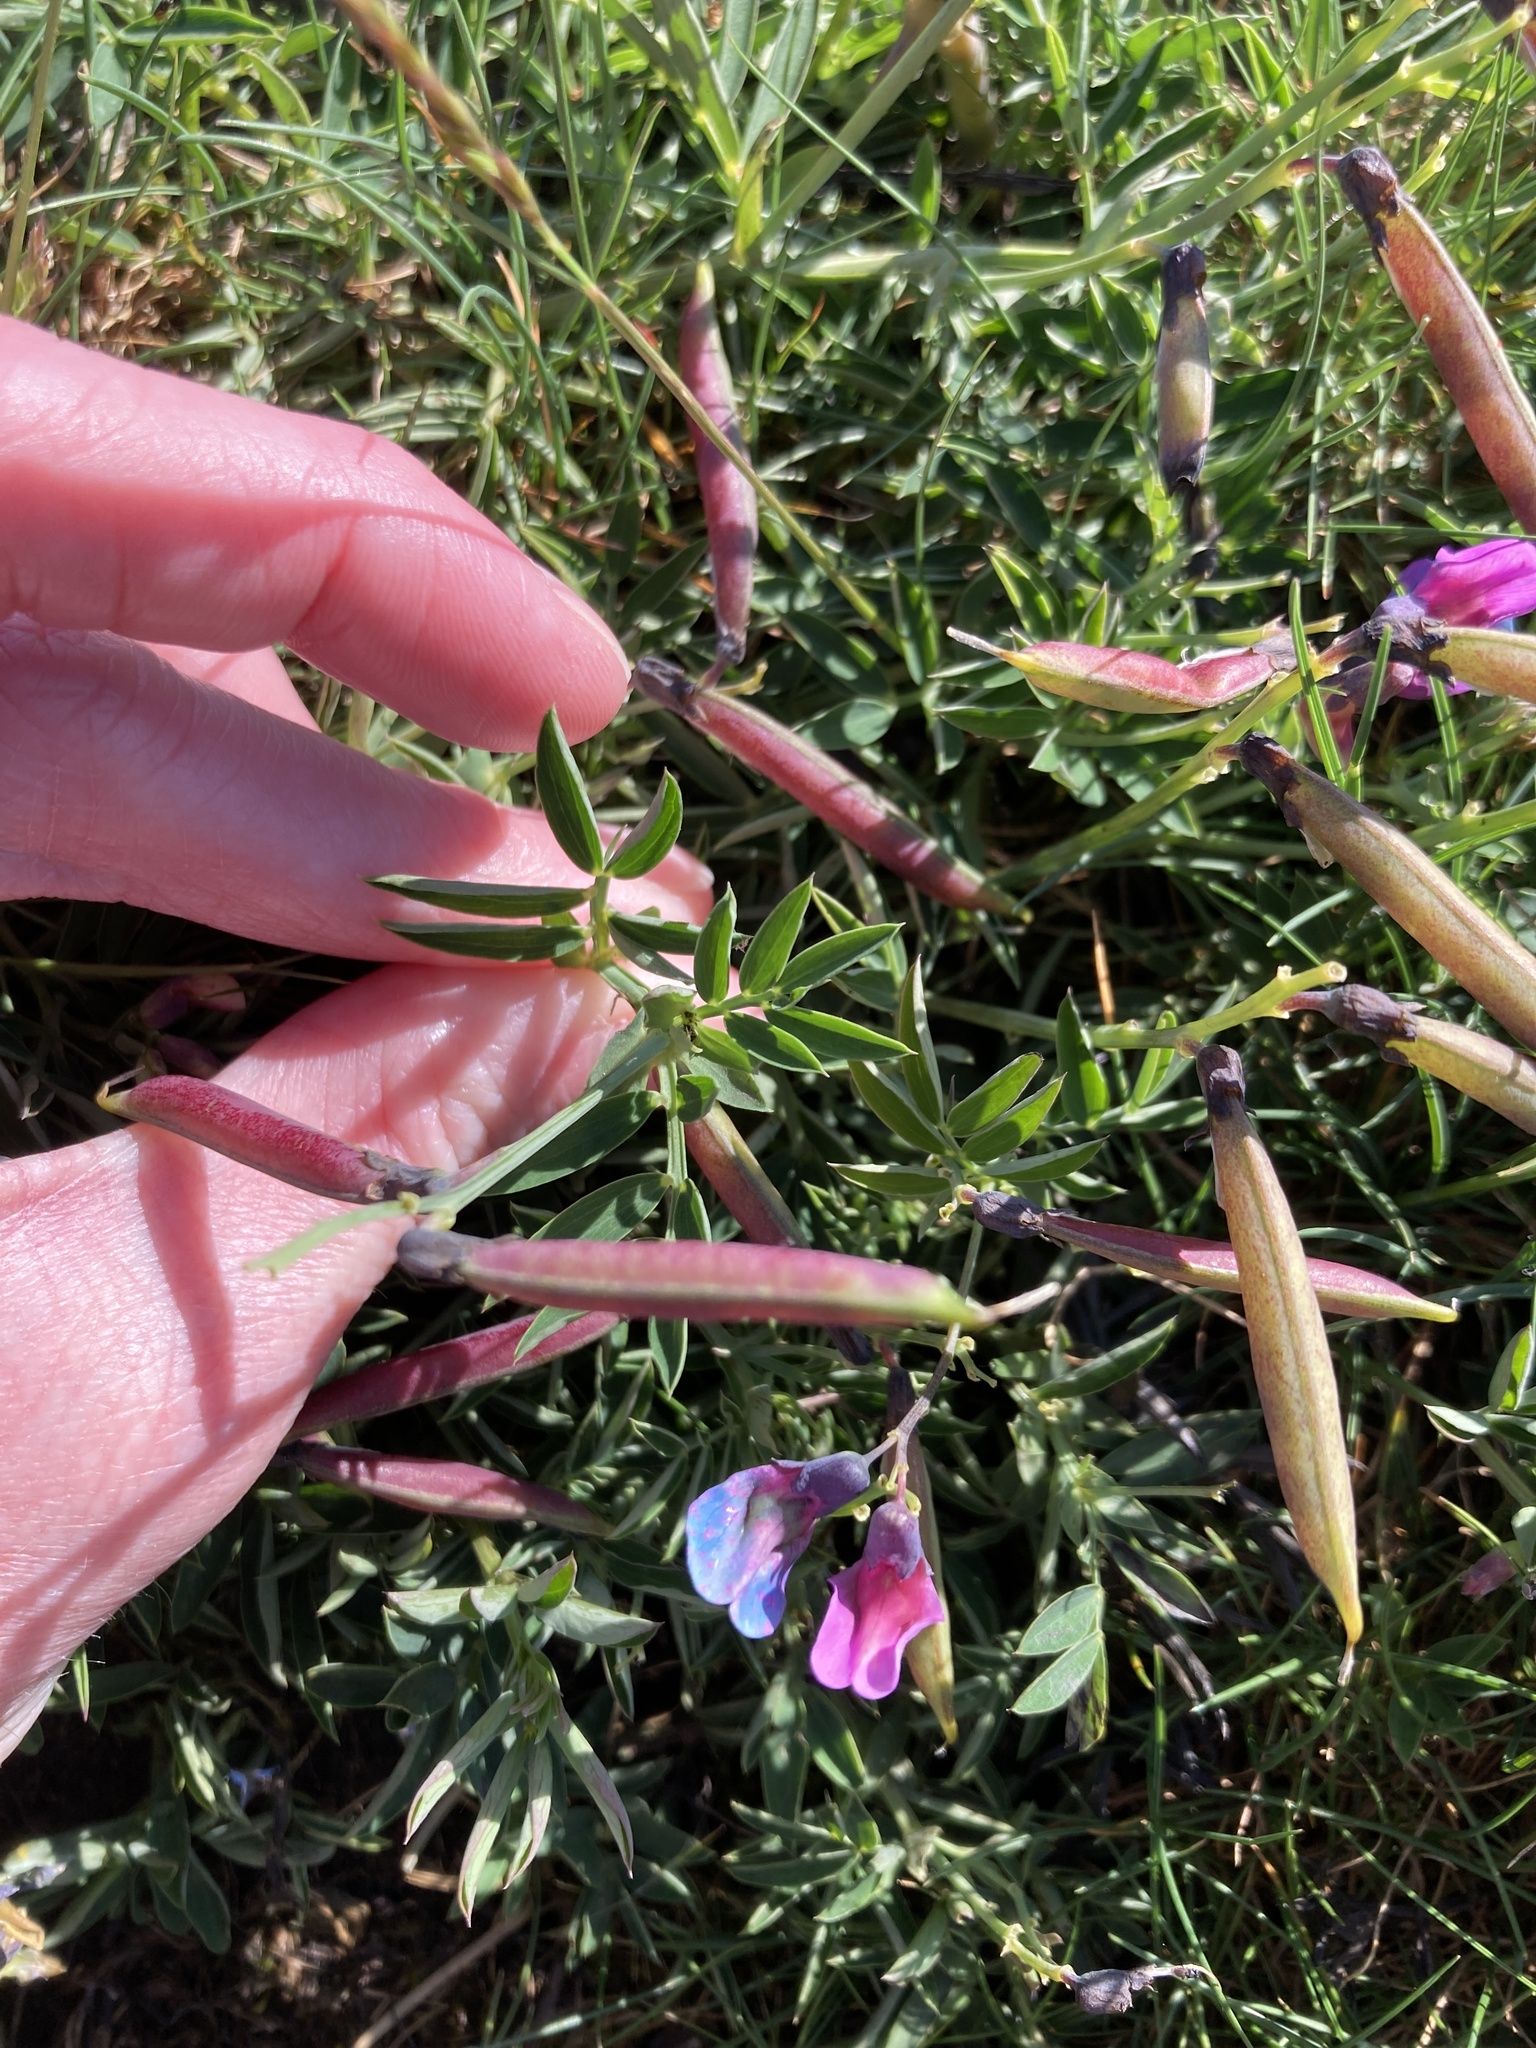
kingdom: Plantae
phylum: Tracheophyta
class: Magnoliopsida
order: Fabales
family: Fabaceae
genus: Lathyrus
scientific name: Lathyrus linifolius
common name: Bitter-vetch
